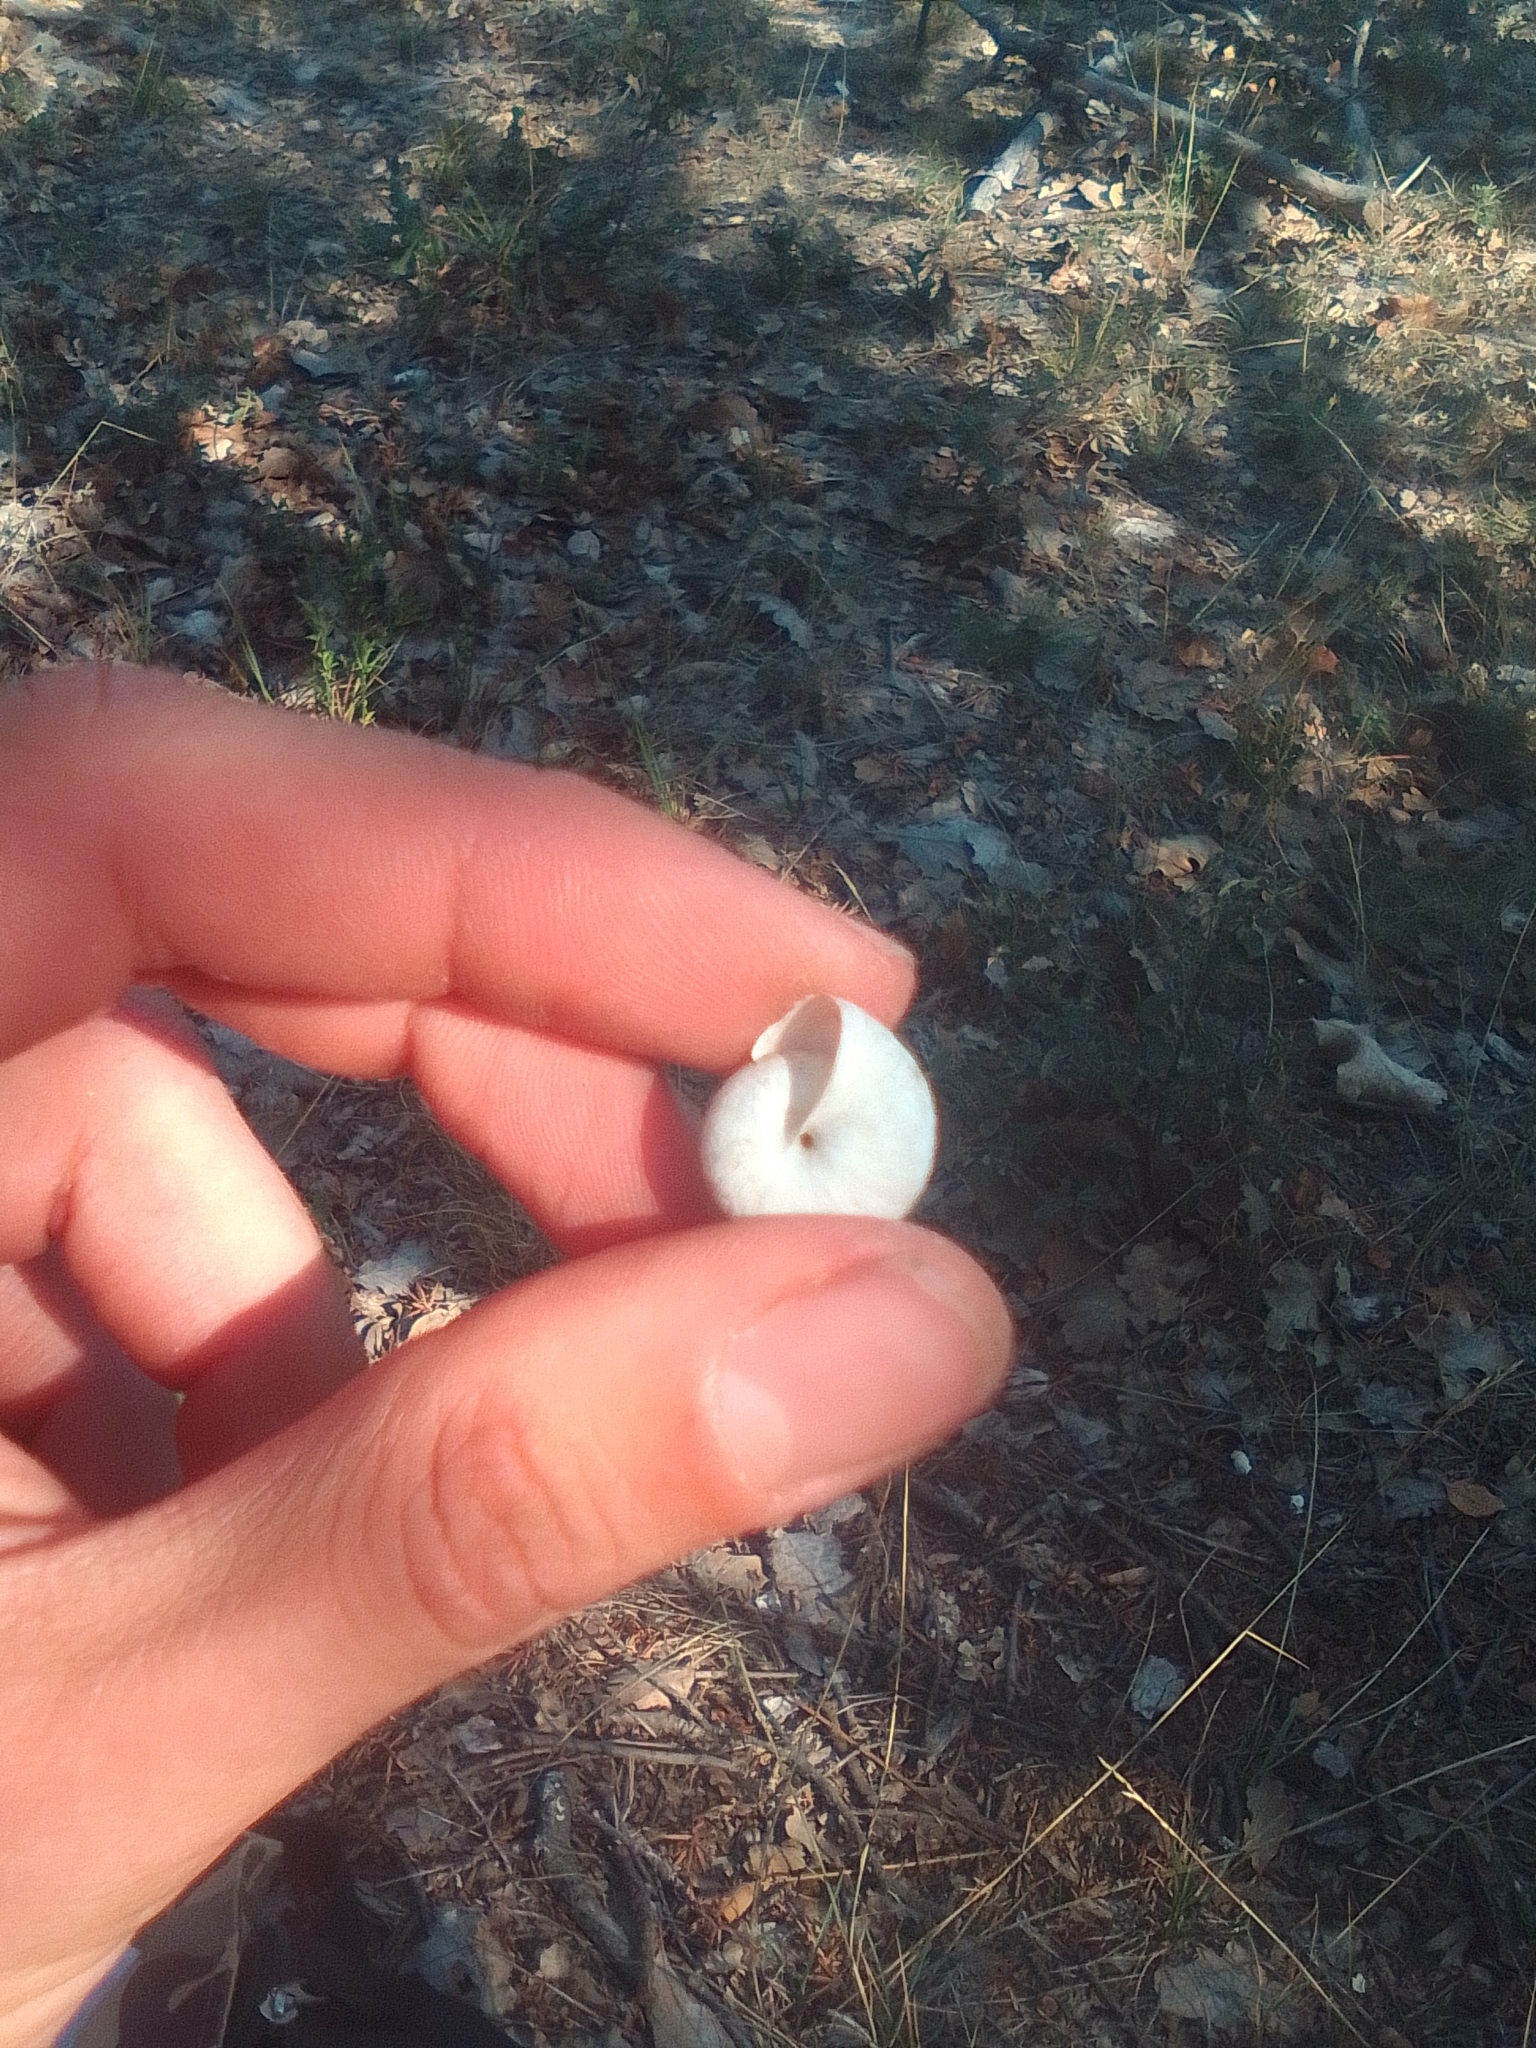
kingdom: Animalia
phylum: Mollusca
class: Gastropoda
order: Stylommatophora
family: Hygromiidae
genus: Monacha
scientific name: Monacha fruticola
